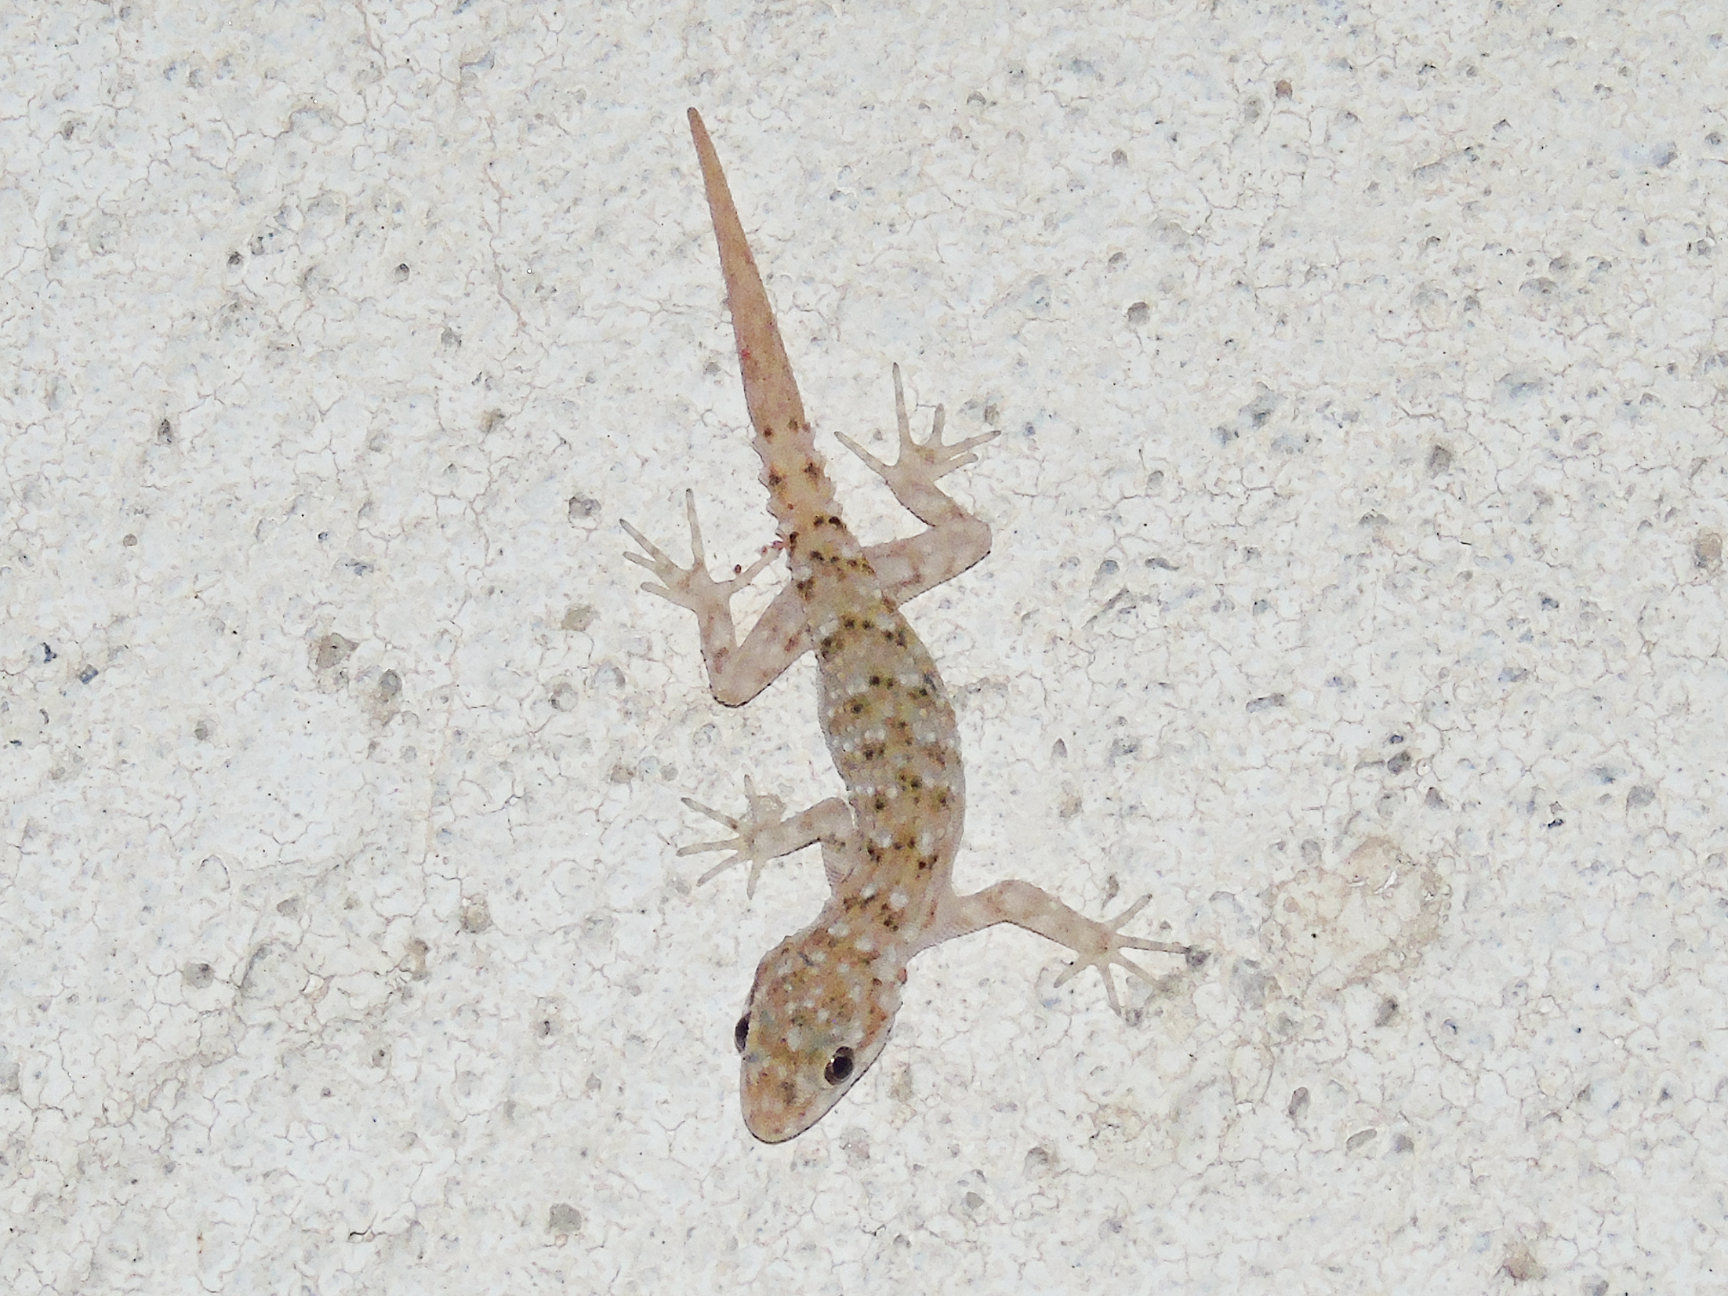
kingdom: Animalia
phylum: Chordata
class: Squamata
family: Gekkonidae
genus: Mediodactylus
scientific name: Mediodactylus kotschyi
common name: Kotschy's gecko
